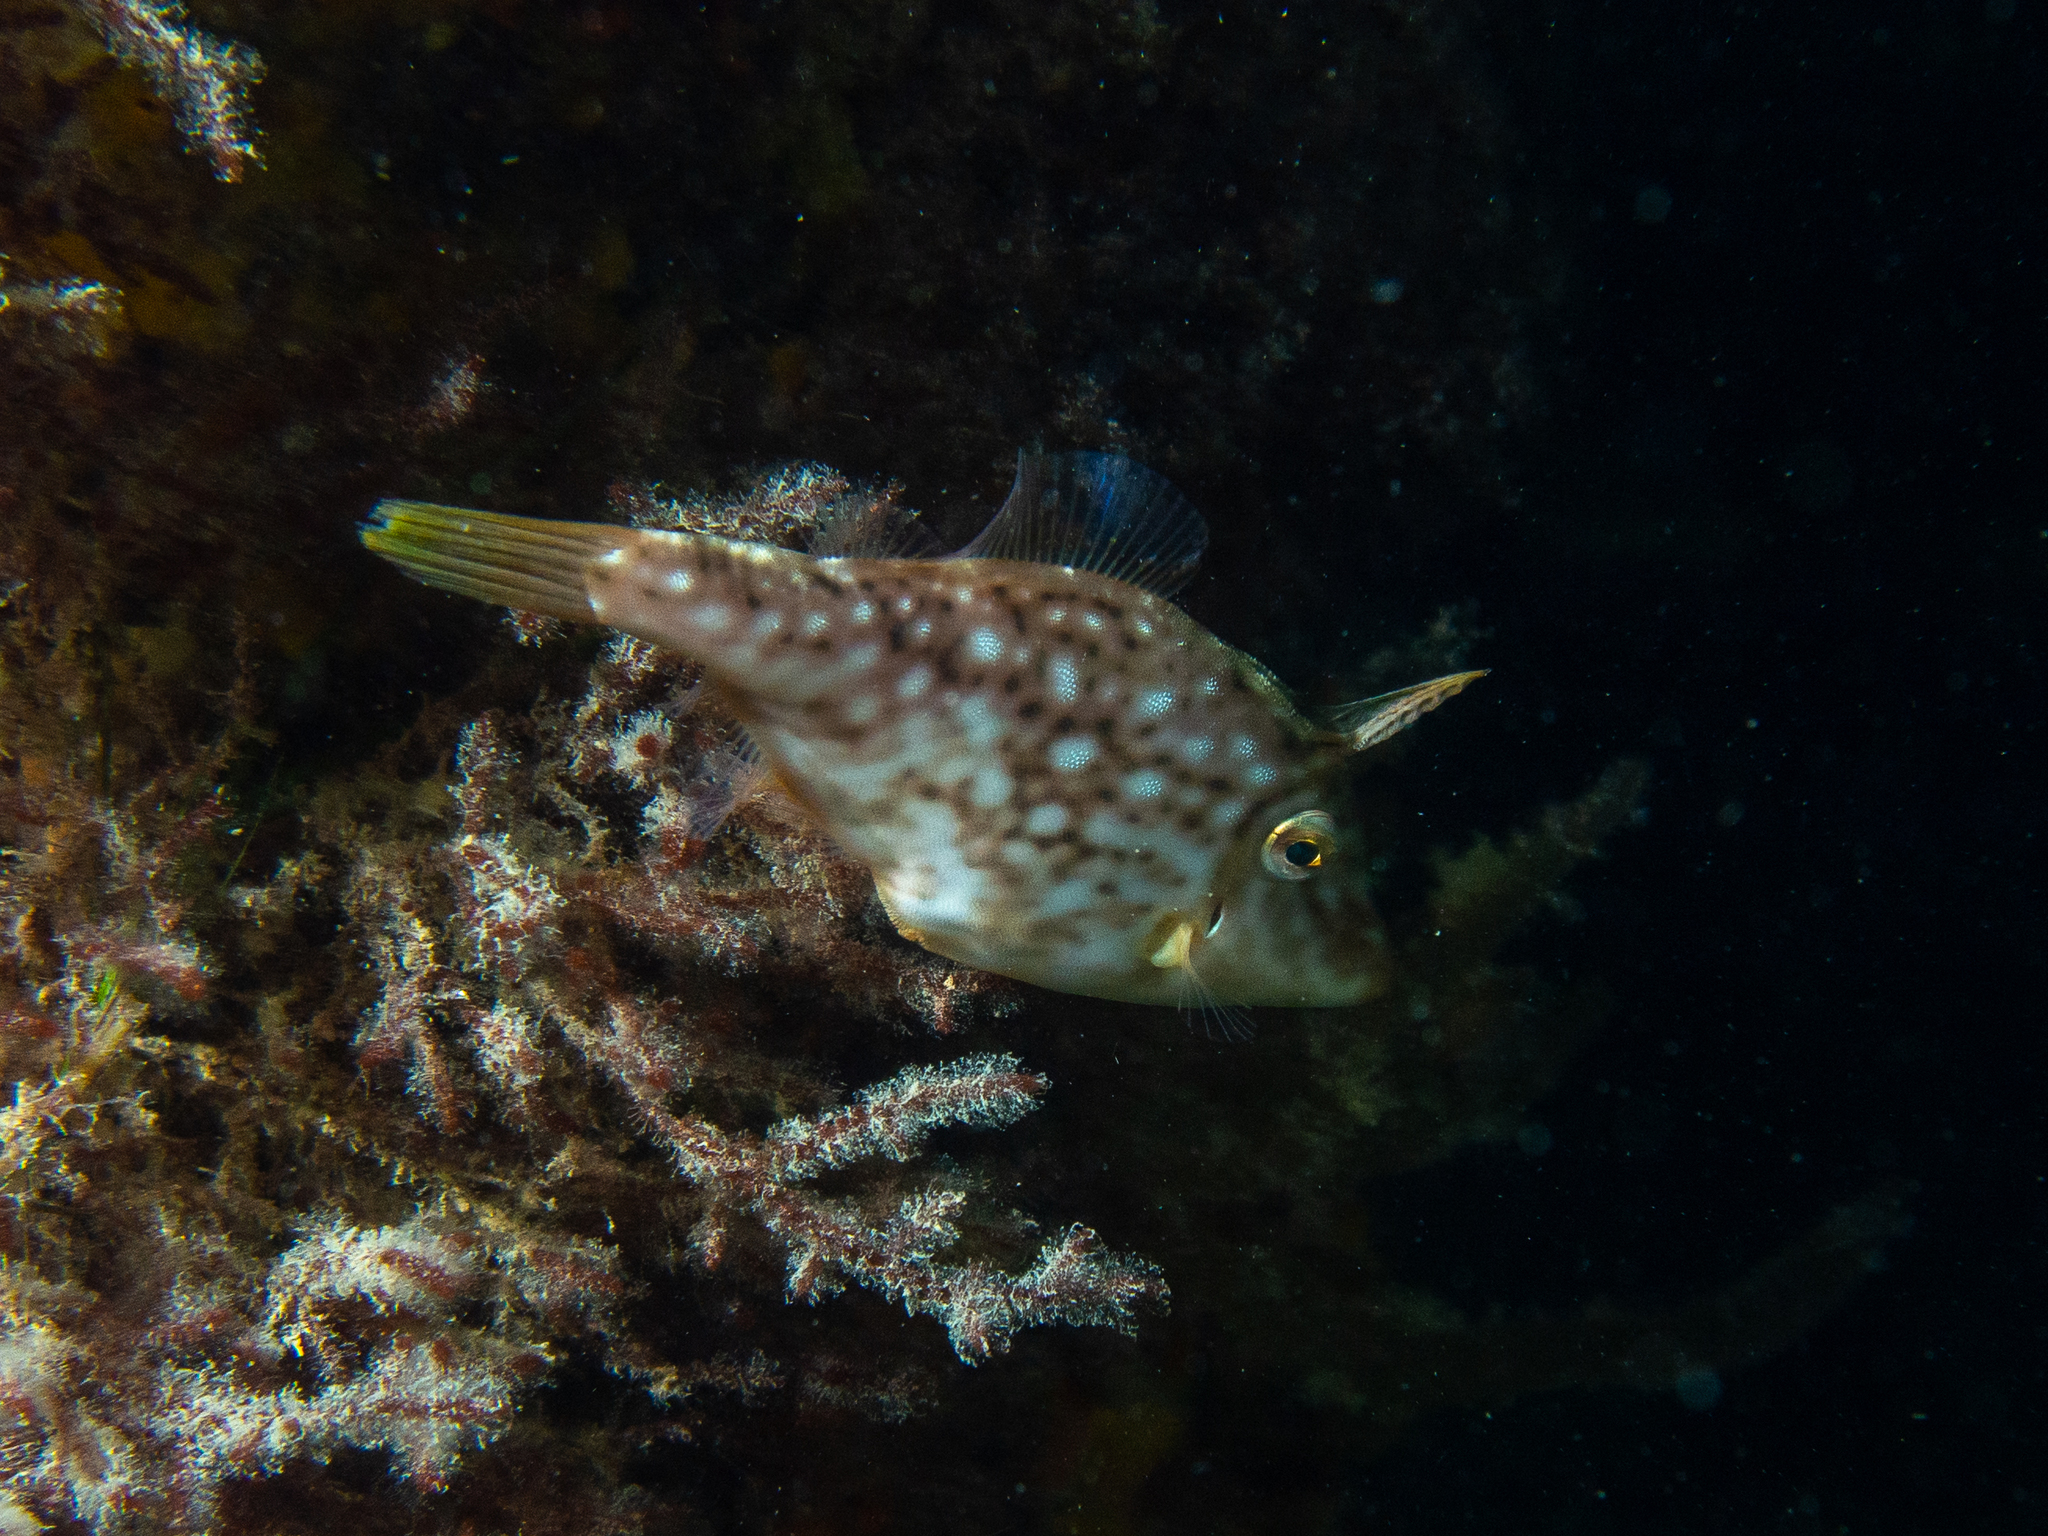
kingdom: Animalia
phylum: Chordata
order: Tetraodontiformes
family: Monacanthidae
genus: Acanthaluteres
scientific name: Acanthaluteres vittiger
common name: Brown leatherjacket
